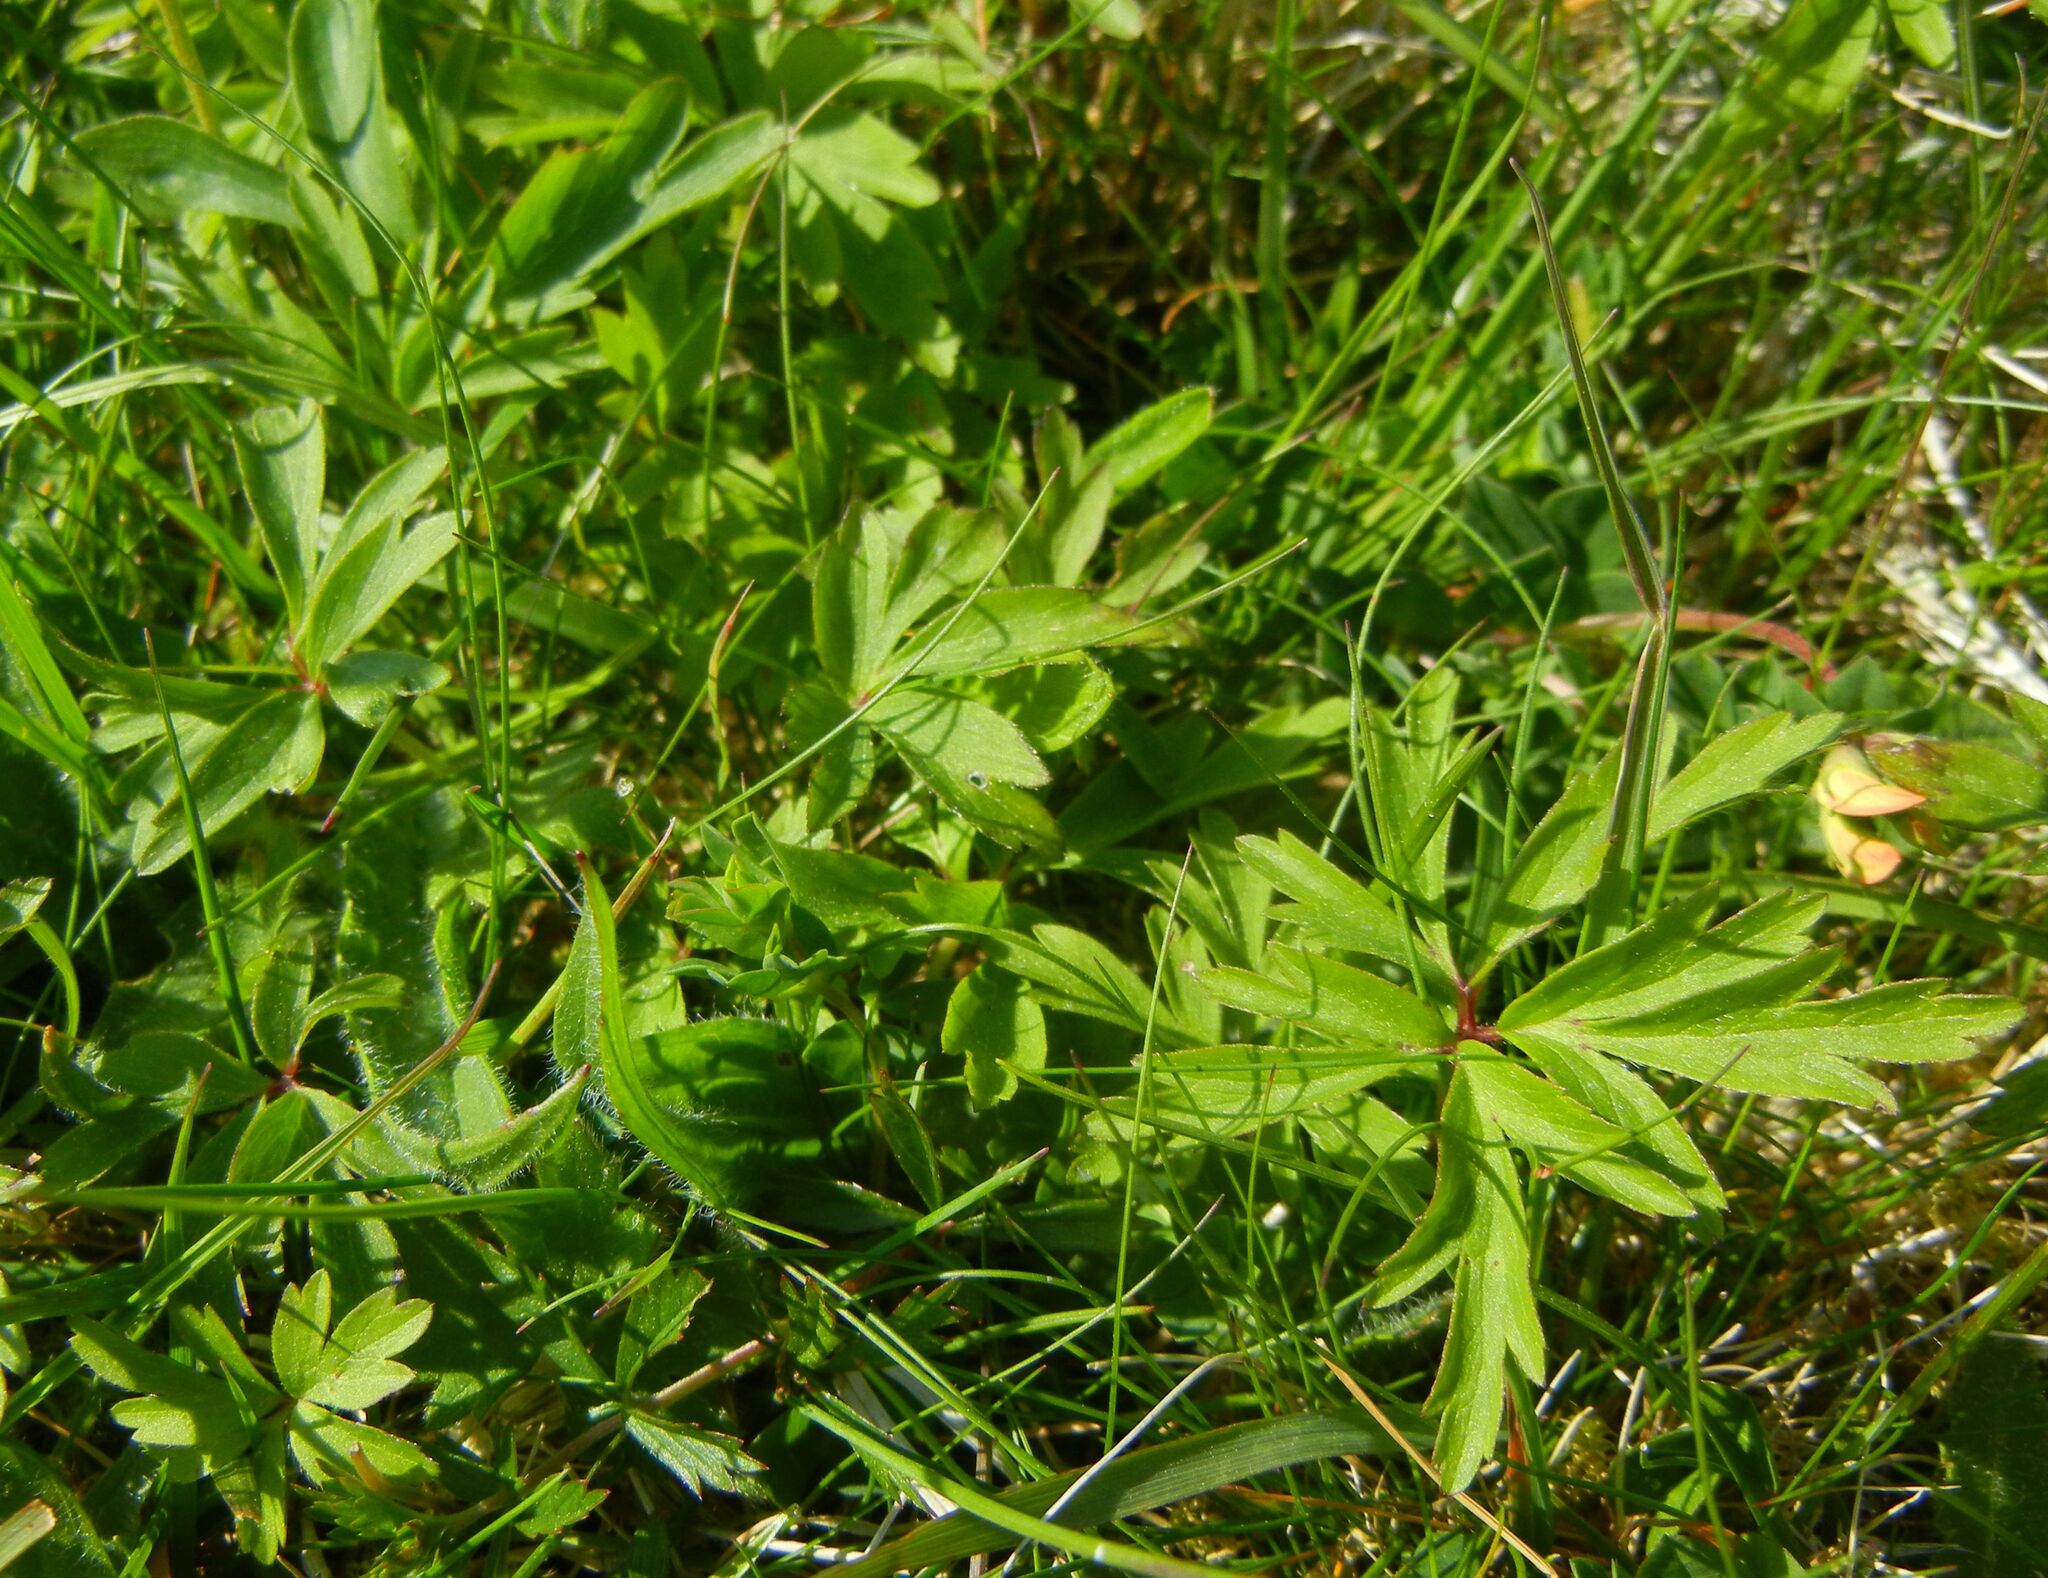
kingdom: Plantae
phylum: Tracheophyta
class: Magnoliopsida
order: Ranunculales
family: Ranunculaceae
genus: Anemone
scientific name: Anemone nemorosa
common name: Wood anemone
